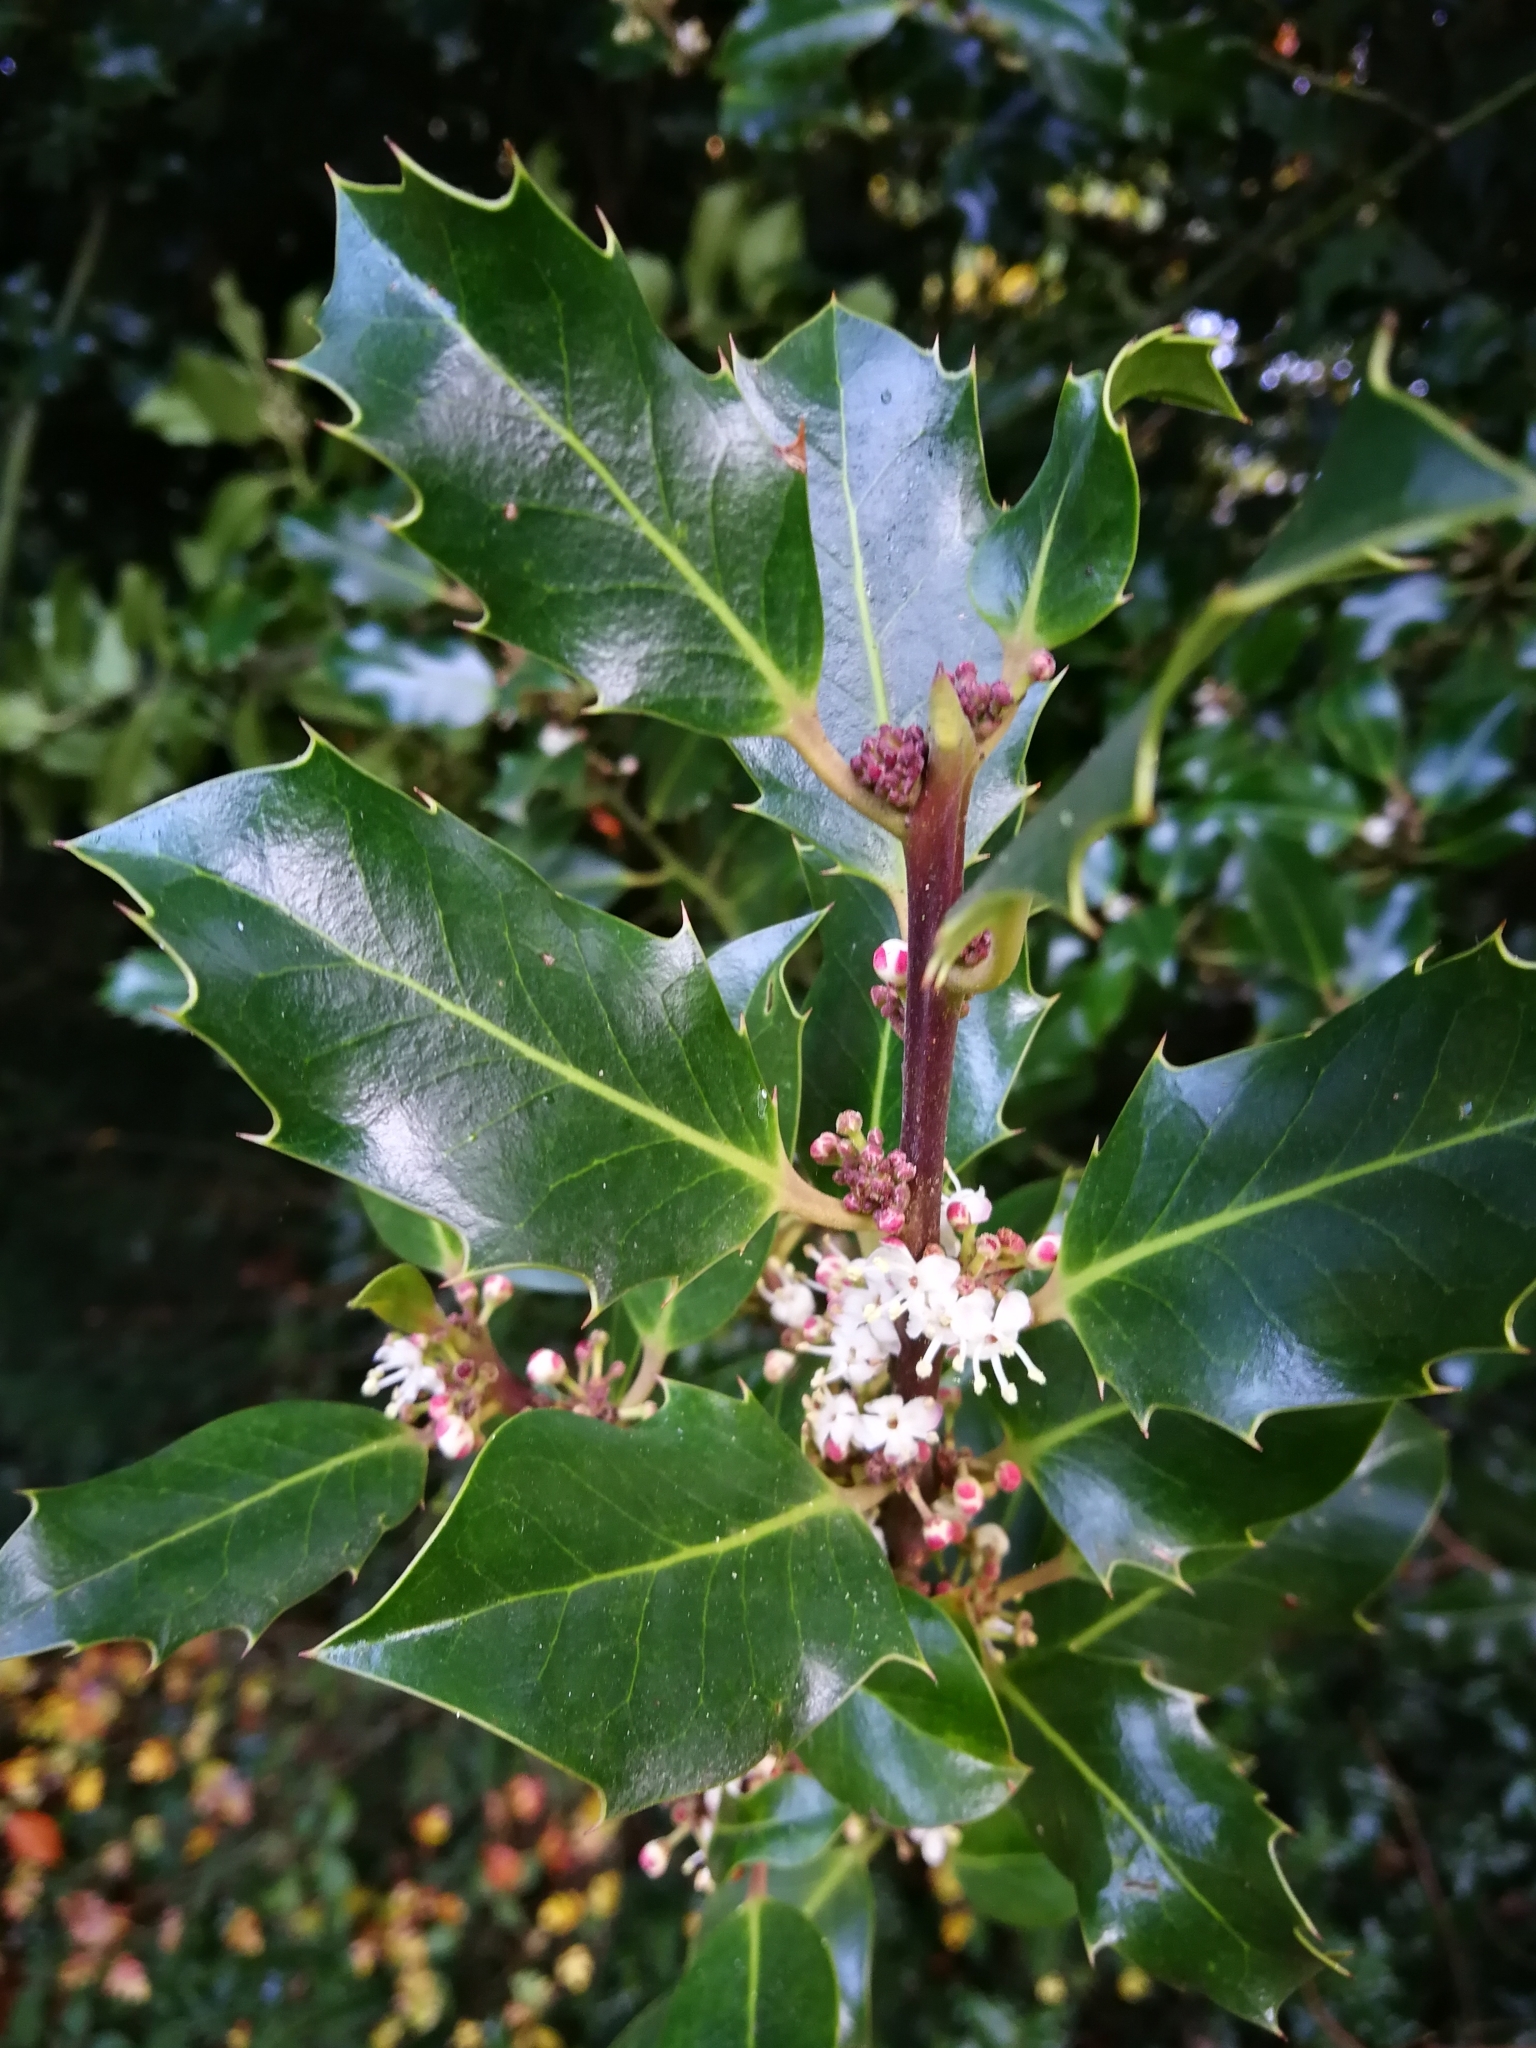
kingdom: Plantae
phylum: Tracheophyta
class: Magnoliopsida
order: Aquifoliales
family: Aquifoliaceae
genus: Ilex
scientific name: Ilex aquifolium
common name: English holly
